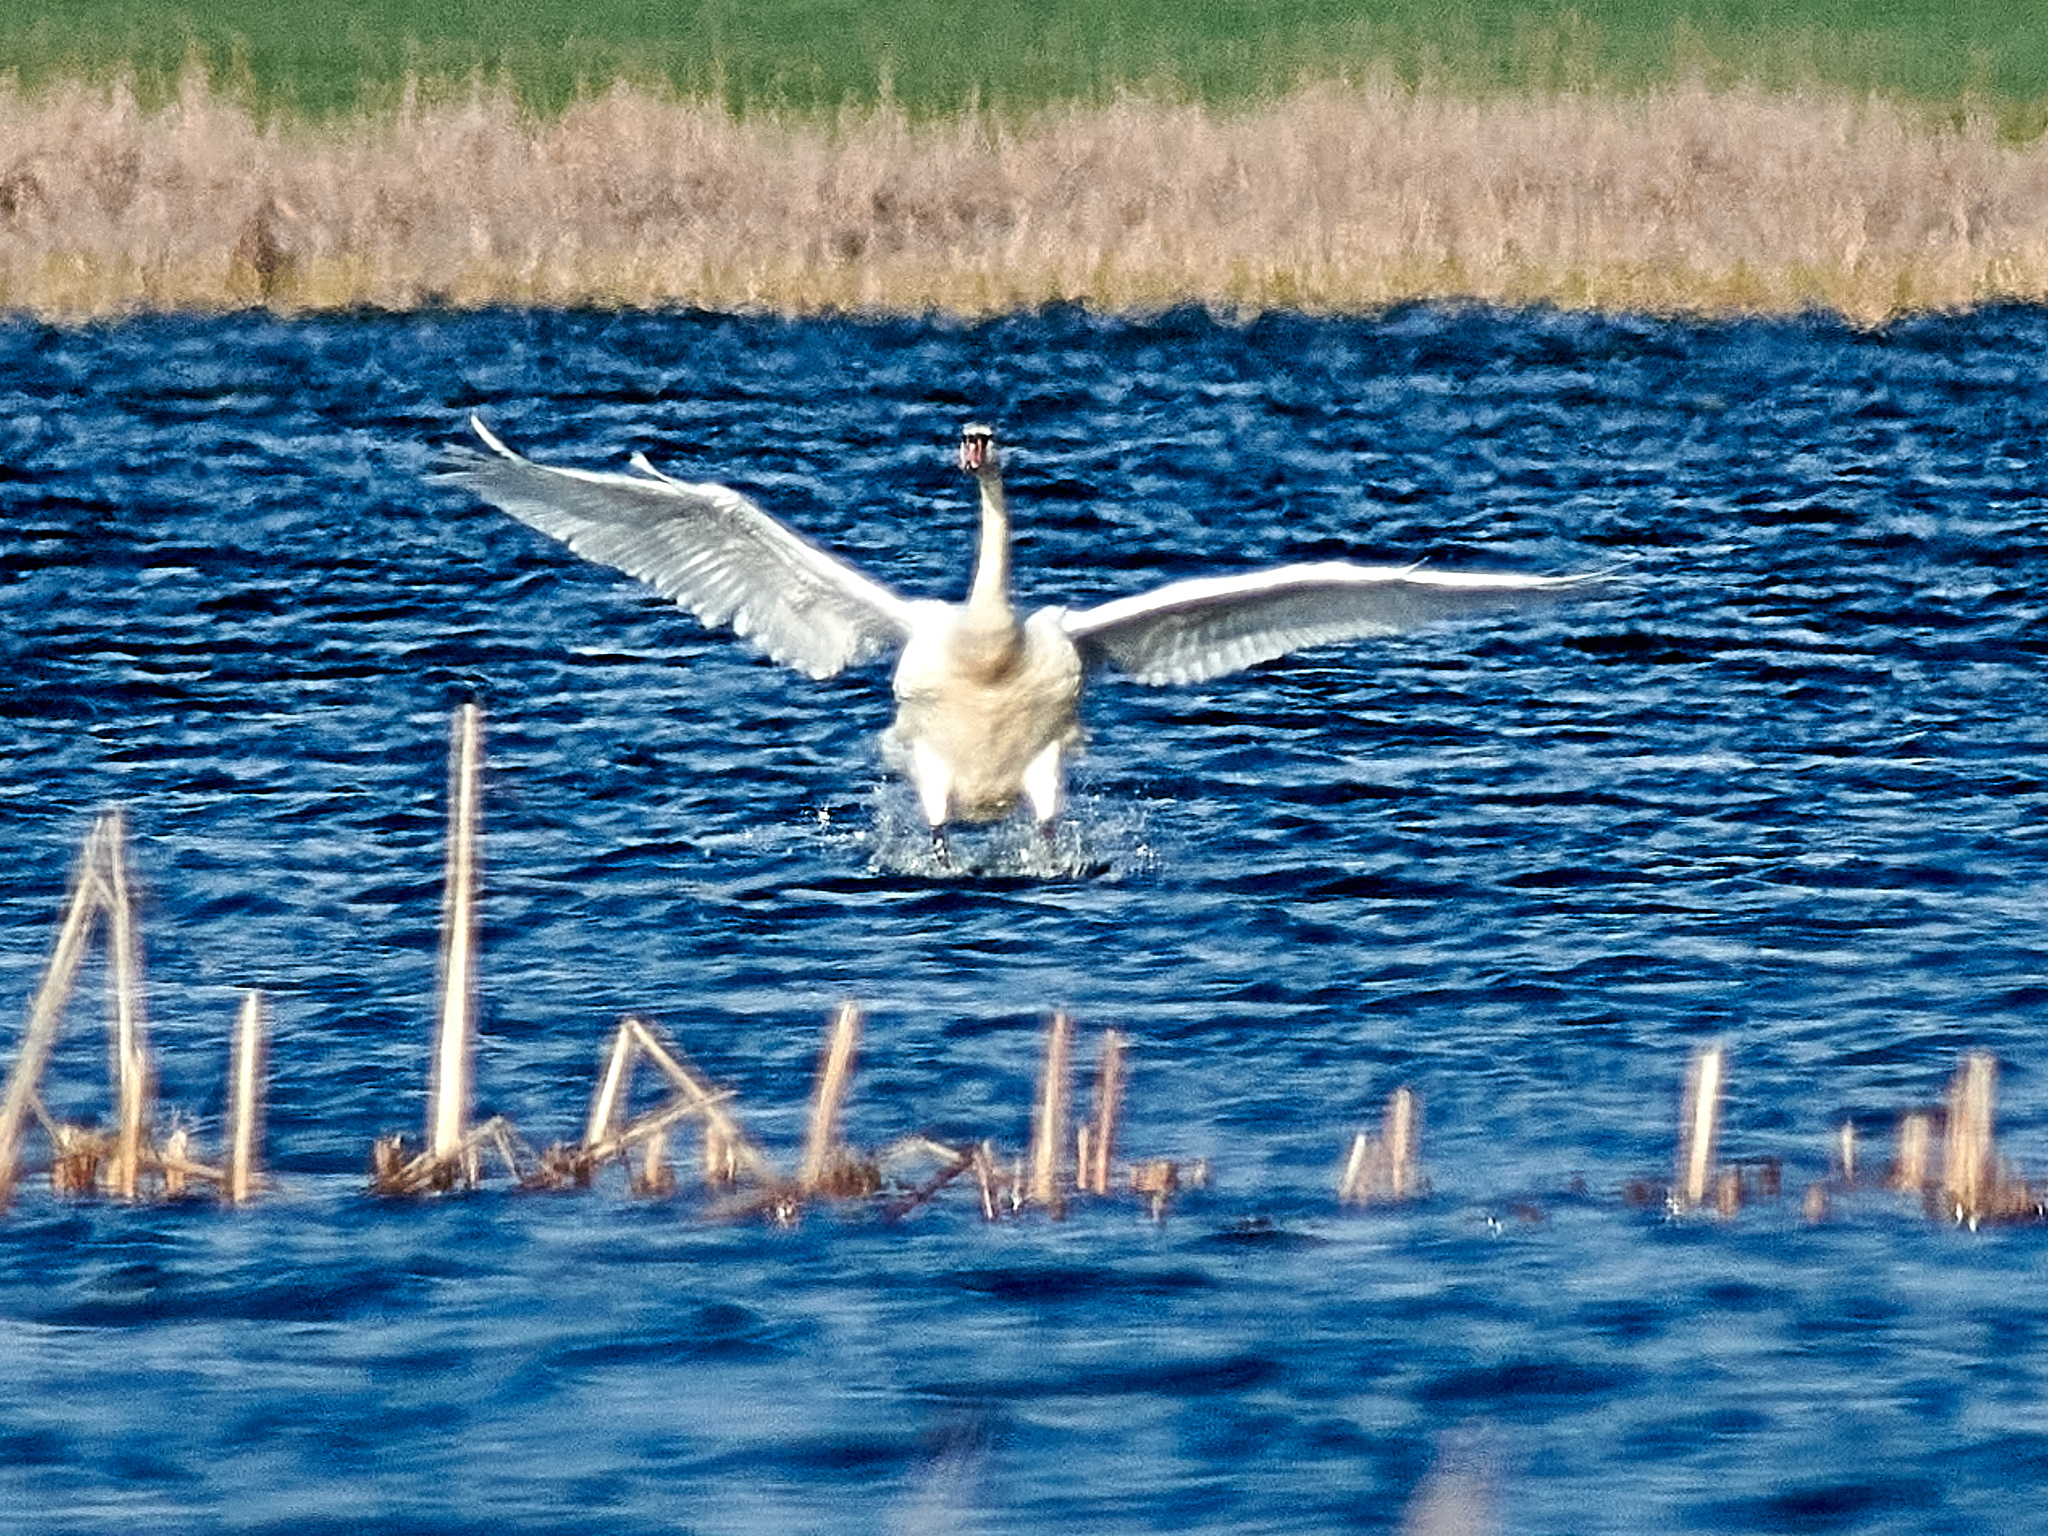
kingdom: Animalia
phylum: Chordata
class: Aves
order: Anseriformes
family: Anatidae
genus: Cygnus
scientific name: Cygnus olor
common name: Mute swan
